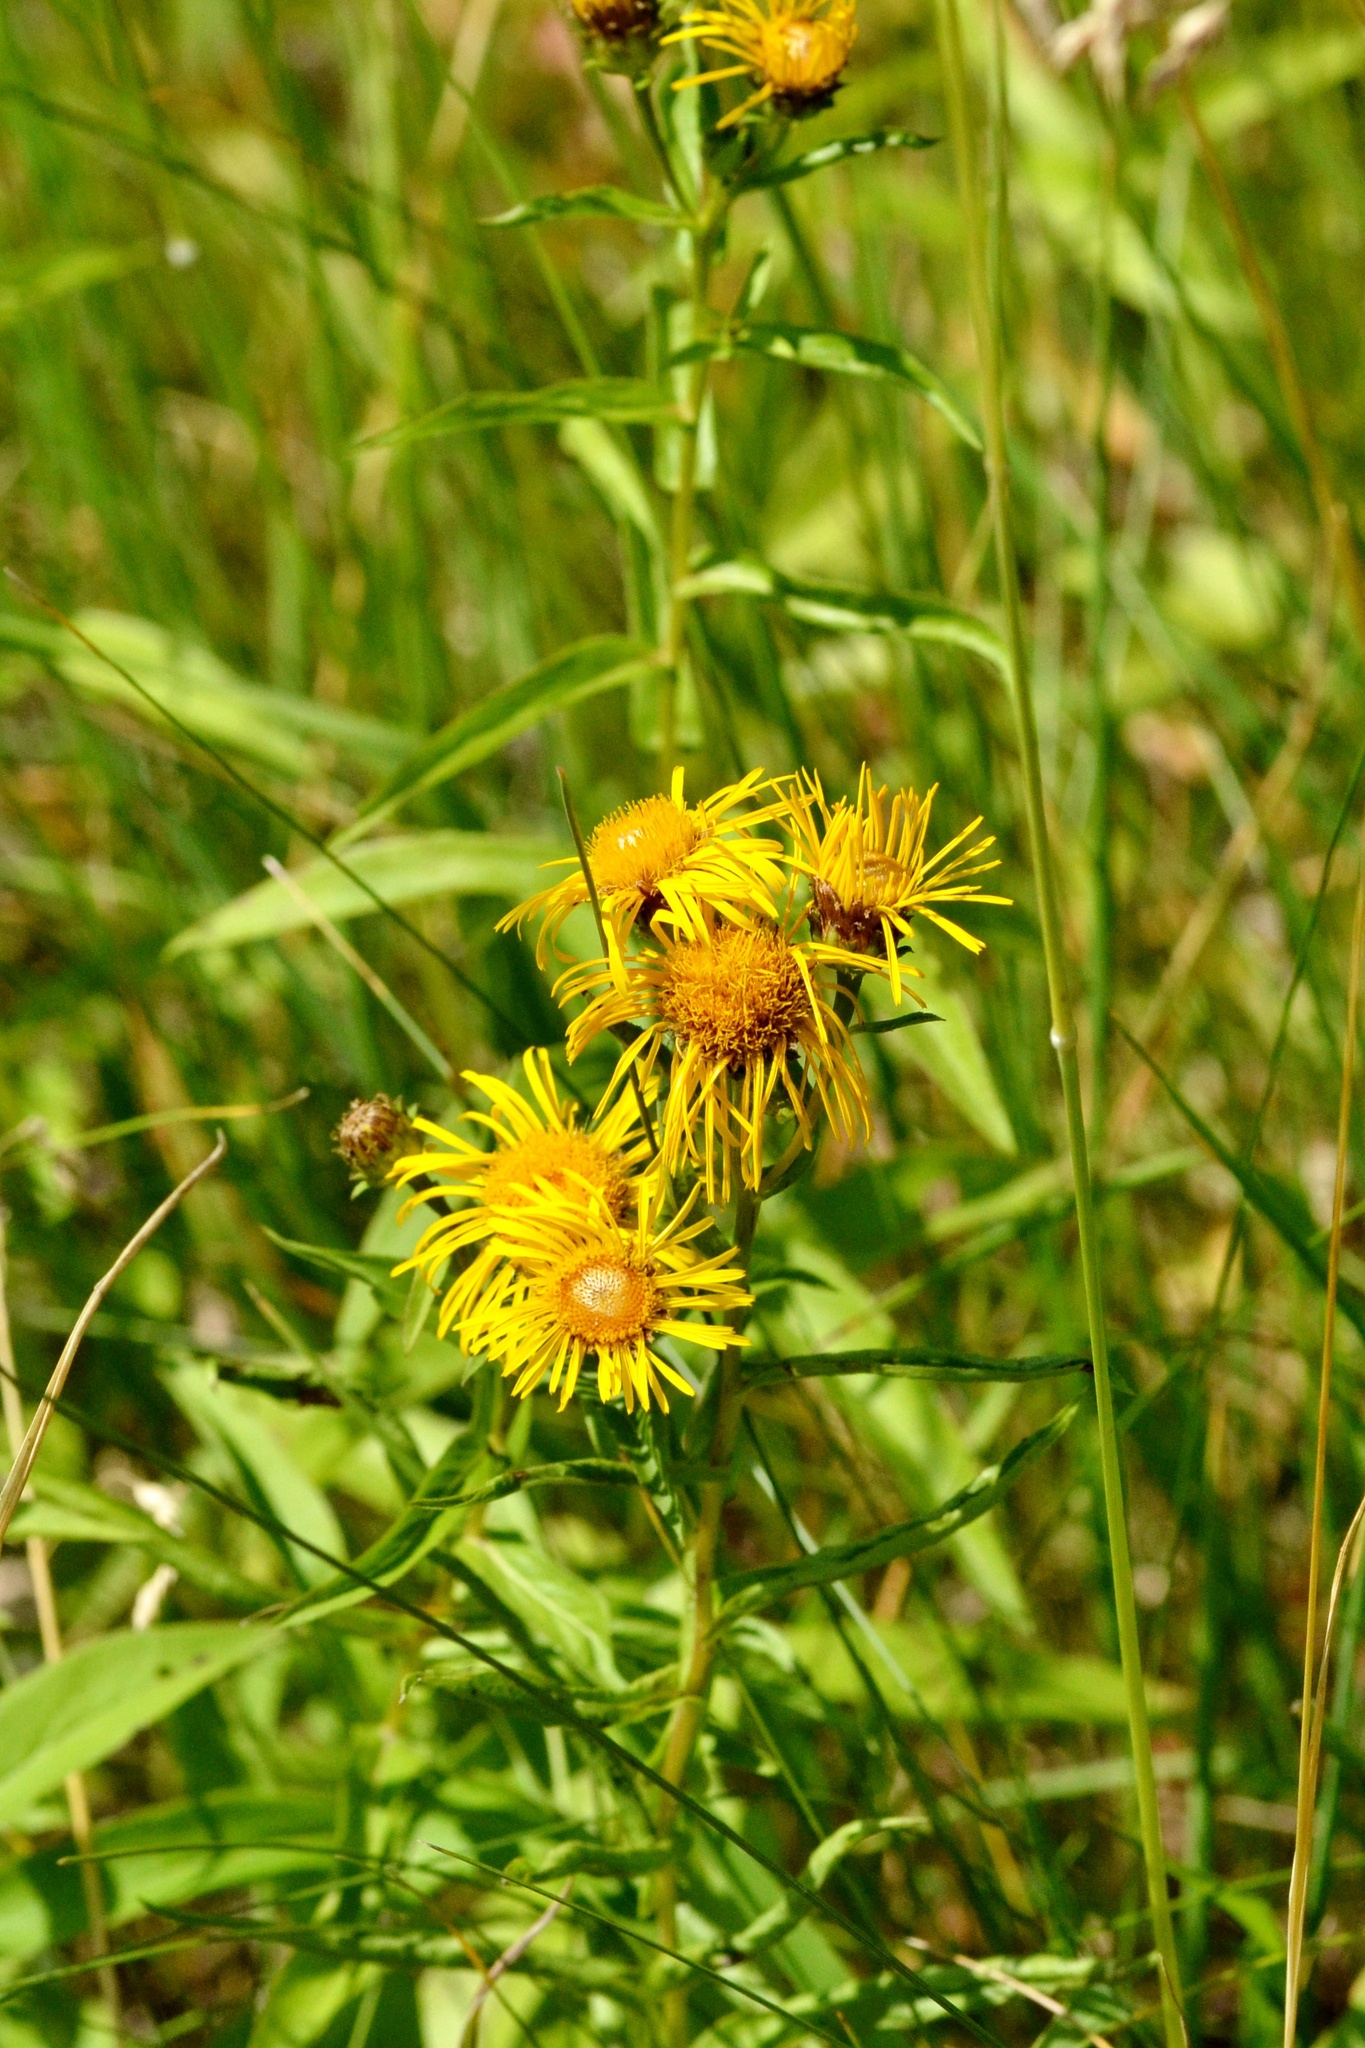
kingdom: Plantae
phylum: Tracheophyta
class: Magnoliopsida
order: Asterales
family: Asteraceae
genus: Pentanema
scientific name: Pentanema salicinum
